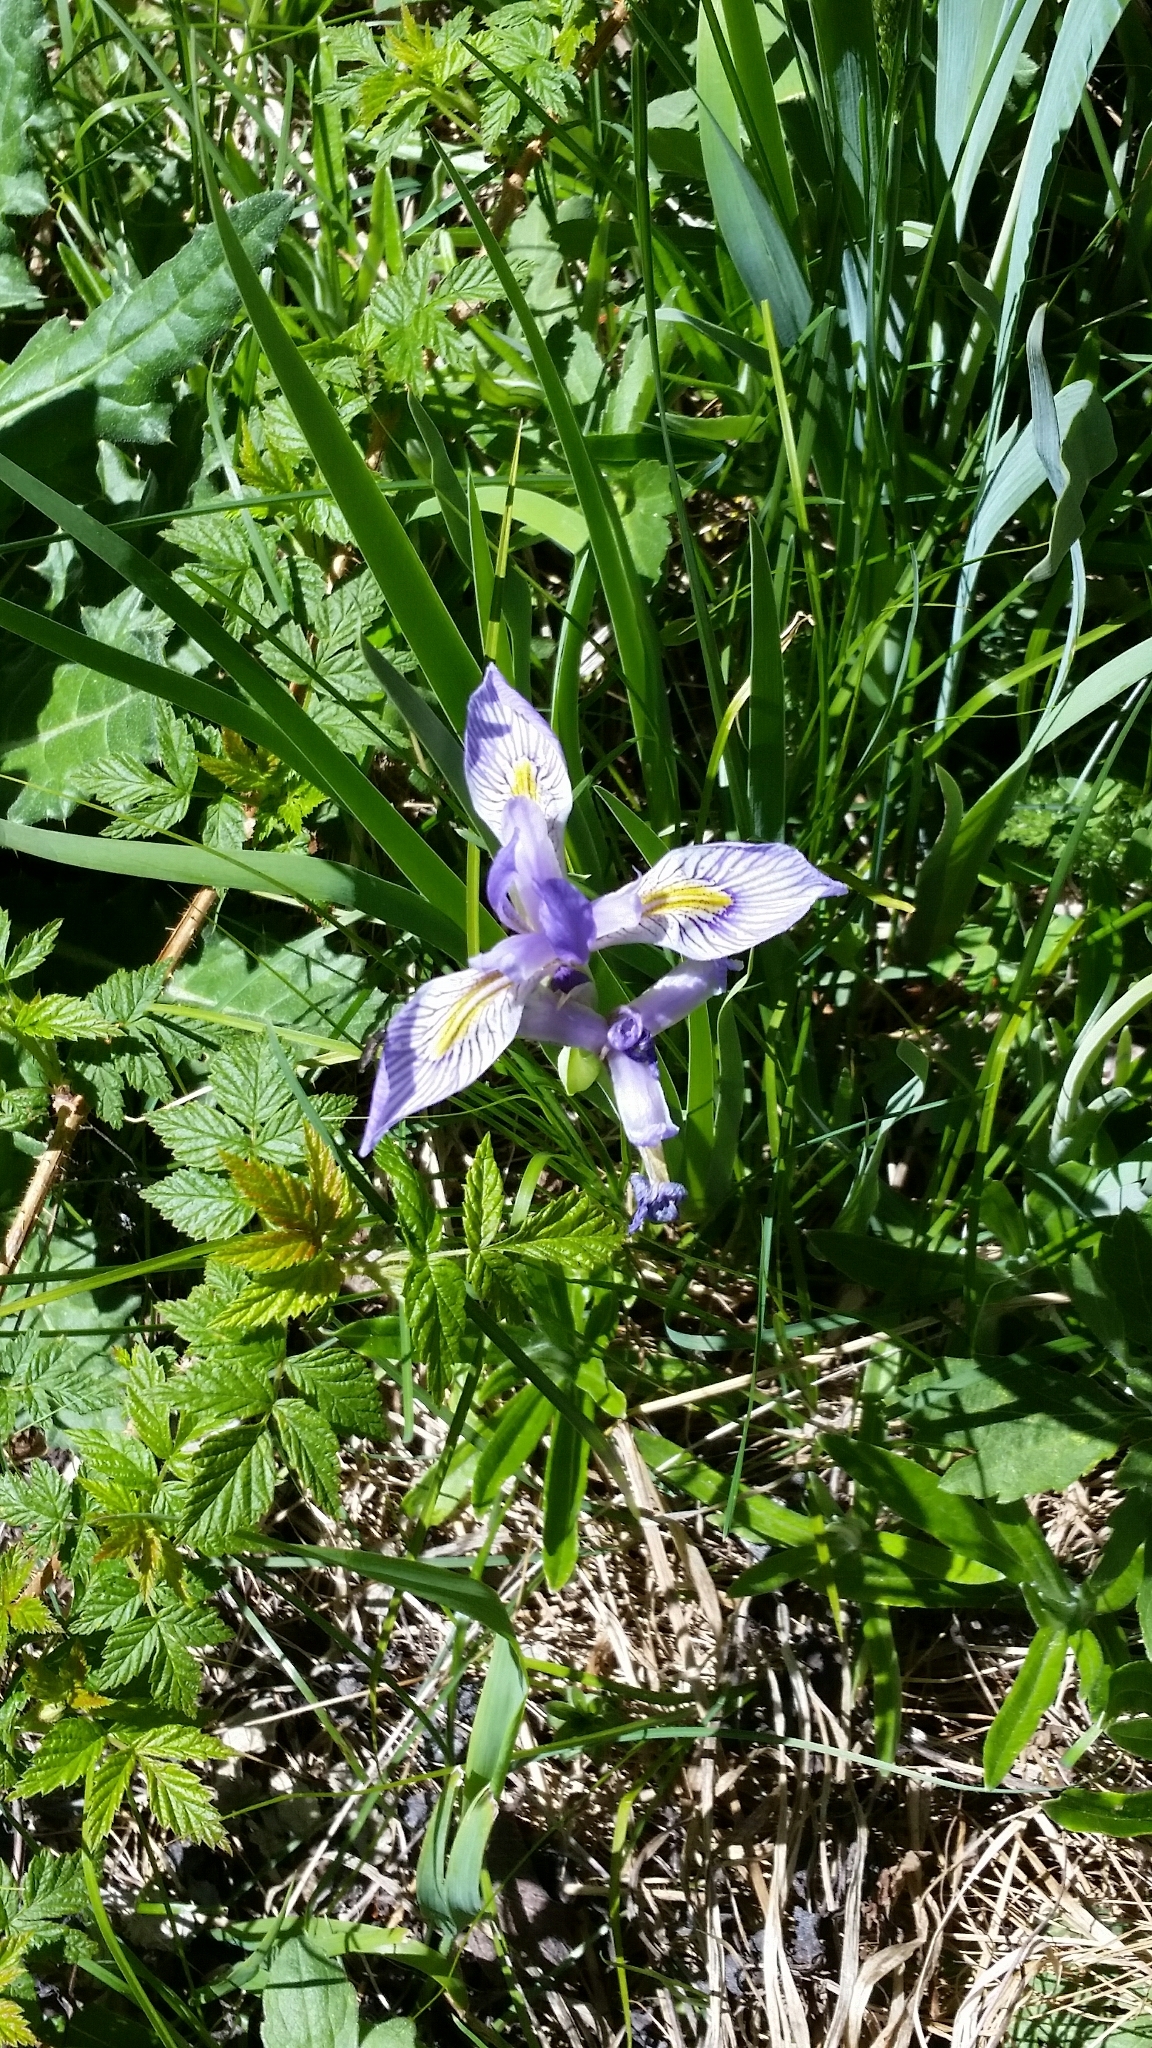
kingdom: Plantae
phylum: Tracheophyta
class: Liliopsida
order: Asparagales
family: Iridaceae
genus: Iris
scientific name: Iris missouriensis
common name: Rocky mountain iris
